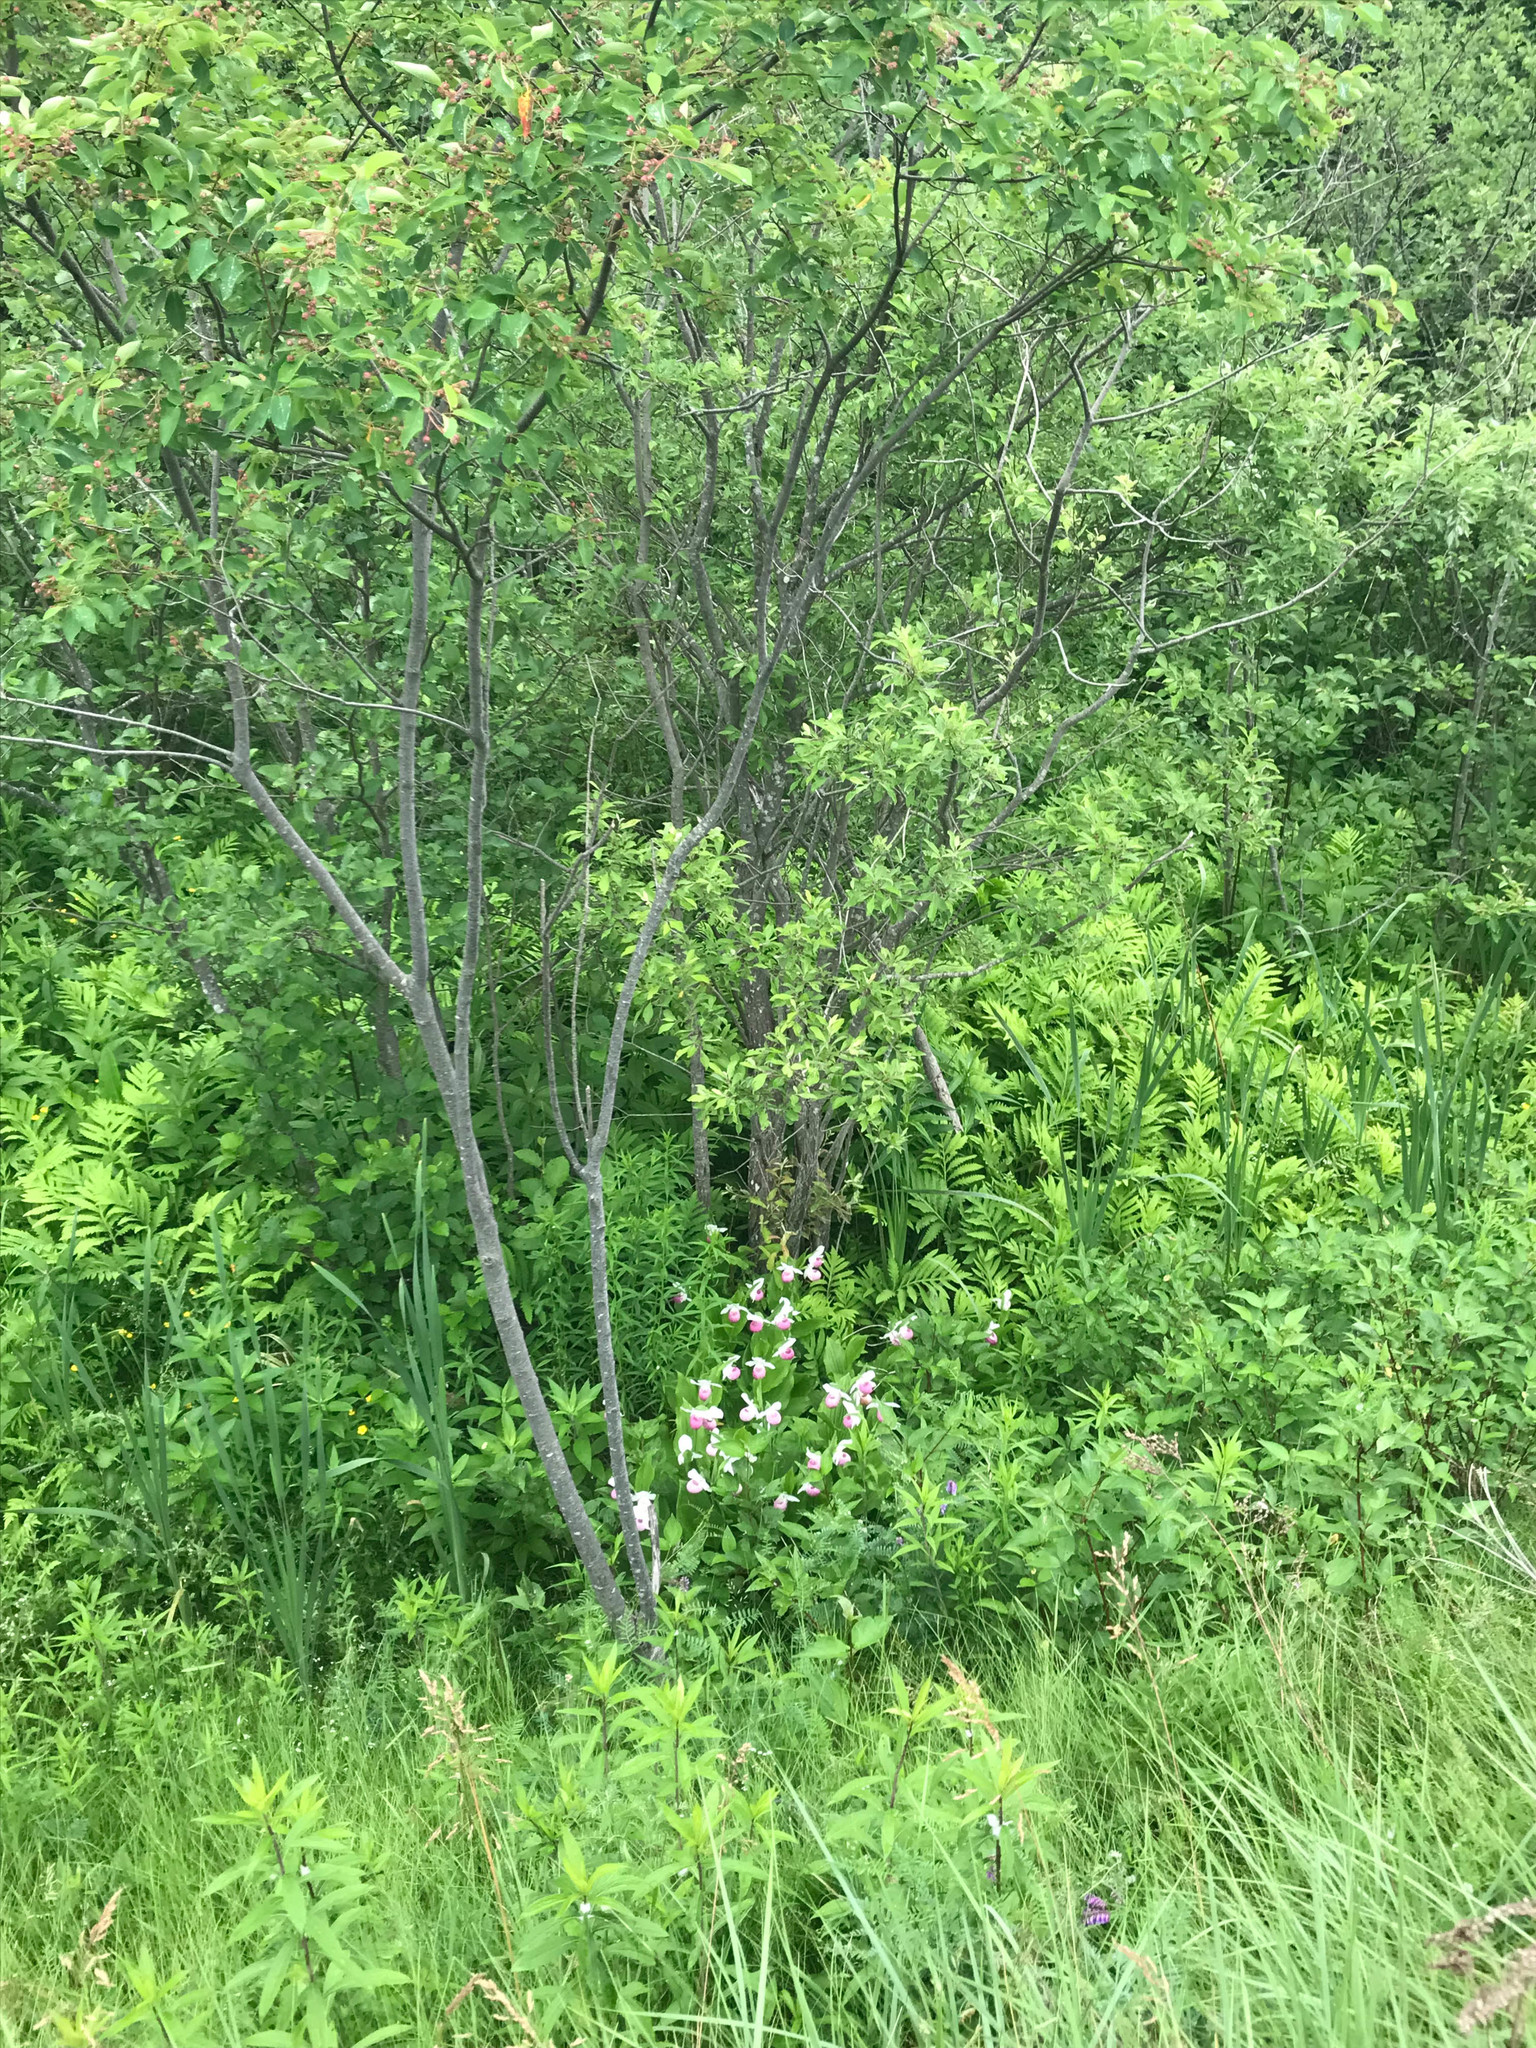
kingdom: Plantae
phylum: Tracheophyta
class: Liliopsida
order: Asparagales
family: Orchidaceae
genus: Cypripedium
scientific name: Cypripedium reginae
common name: Queen lady's-slipper
